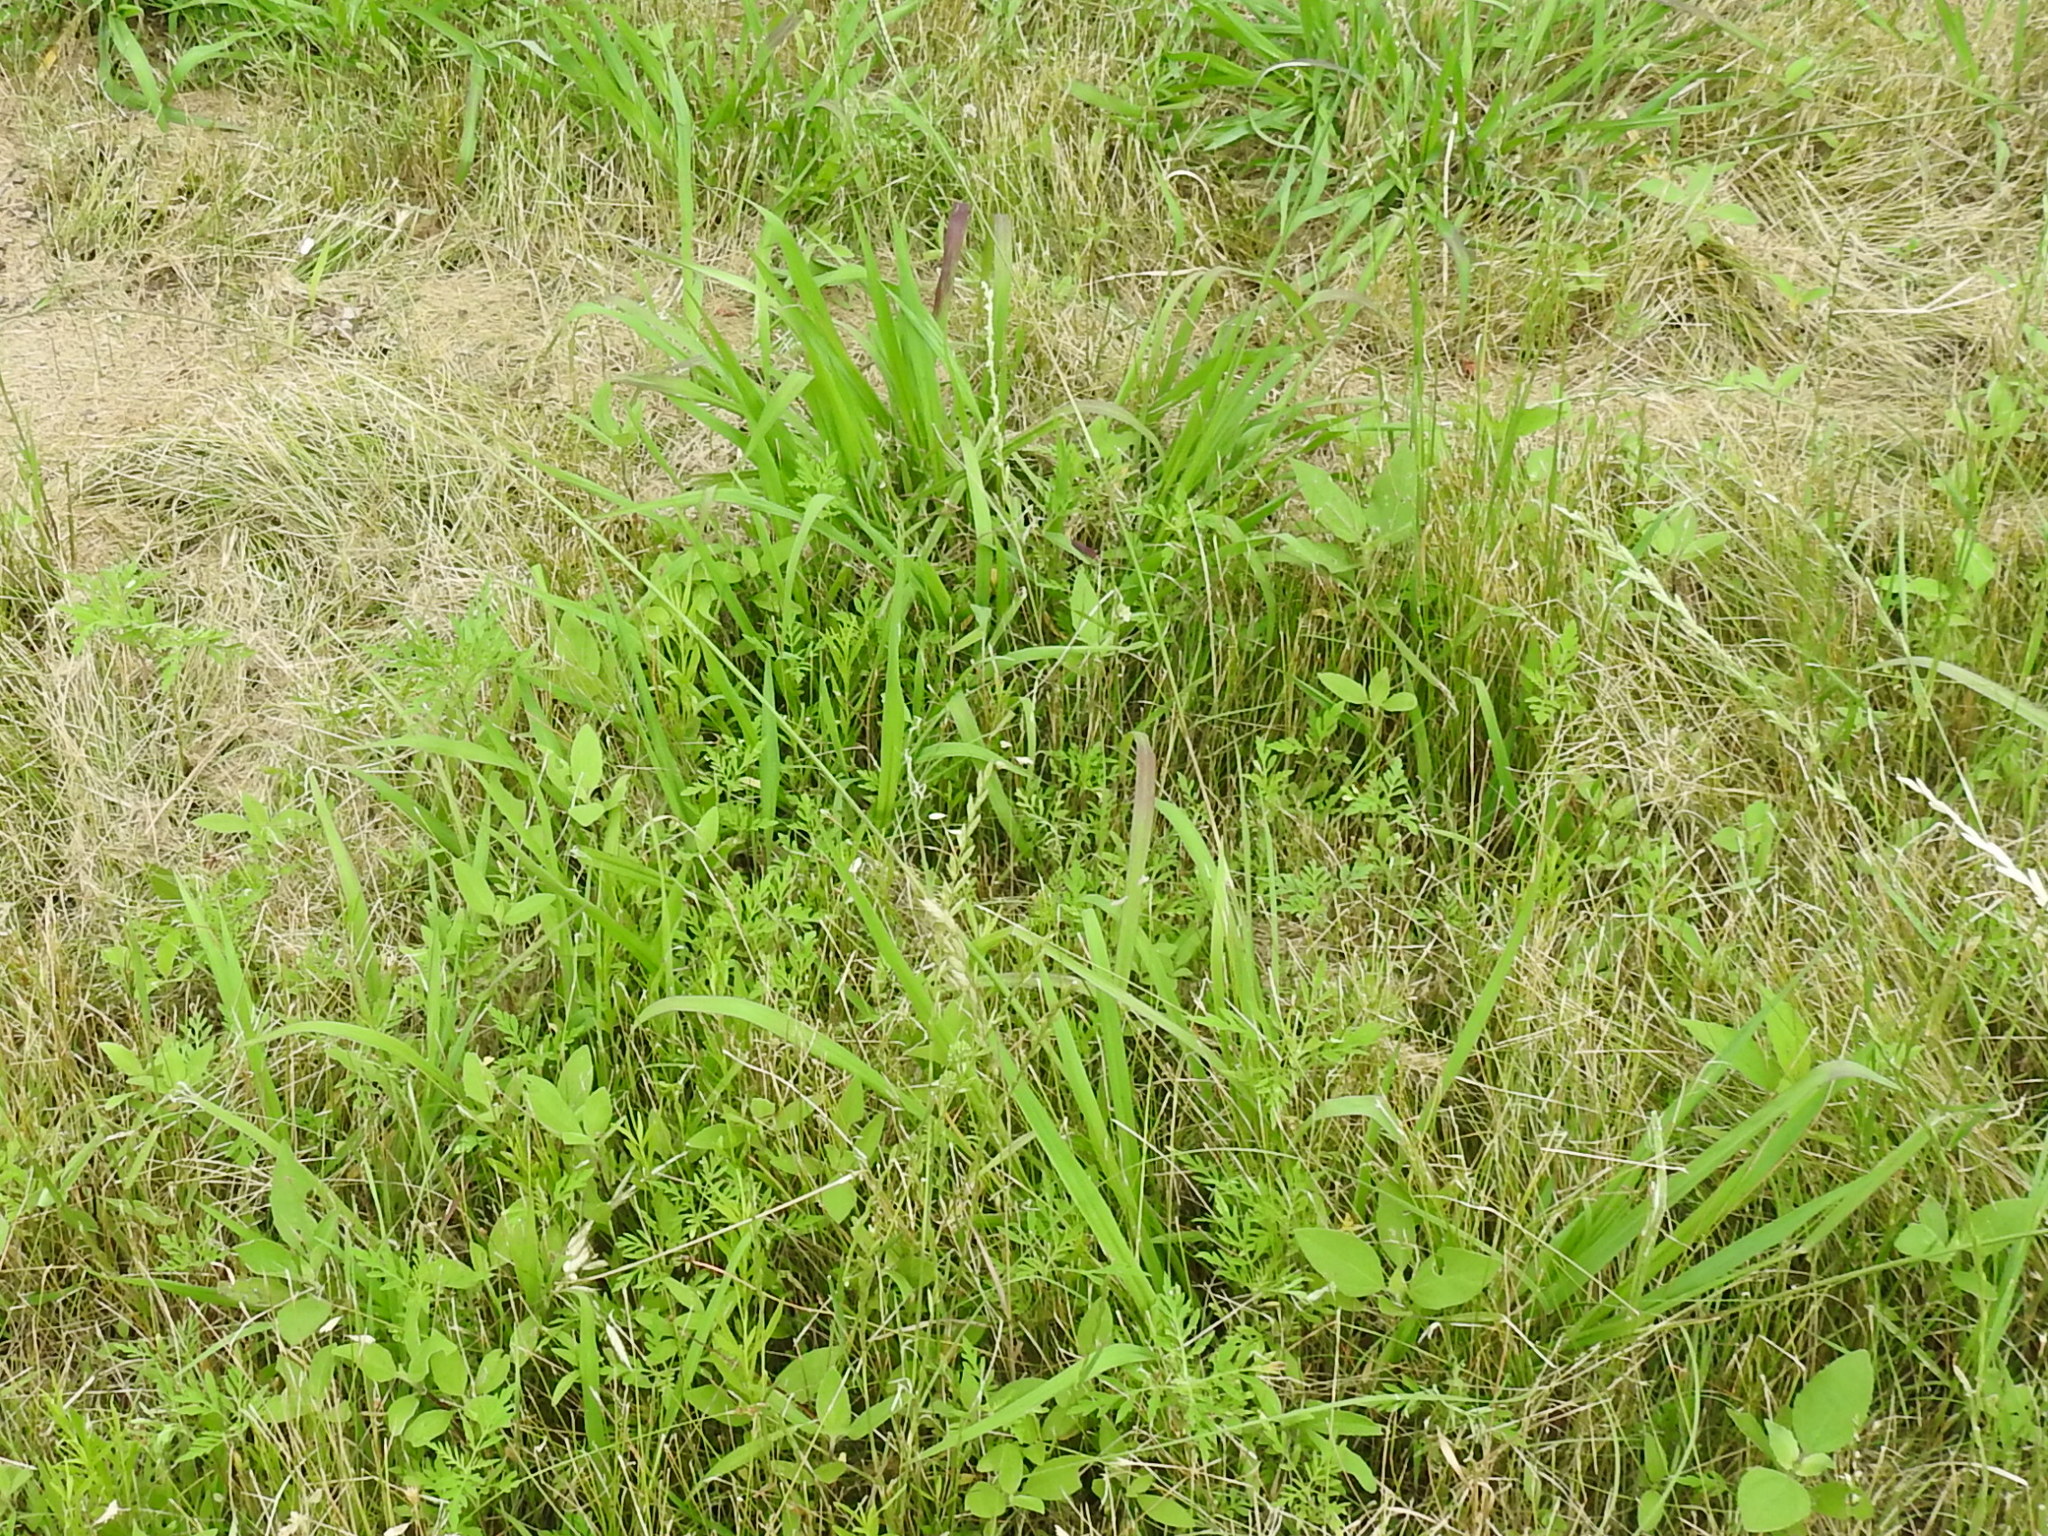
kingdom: Plantae
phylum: Tracheophyta
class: Liliopsida
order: Poales
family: Poaceae
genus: Paspalum
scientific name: Paspalum dilatatum
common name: Dallisgrass
